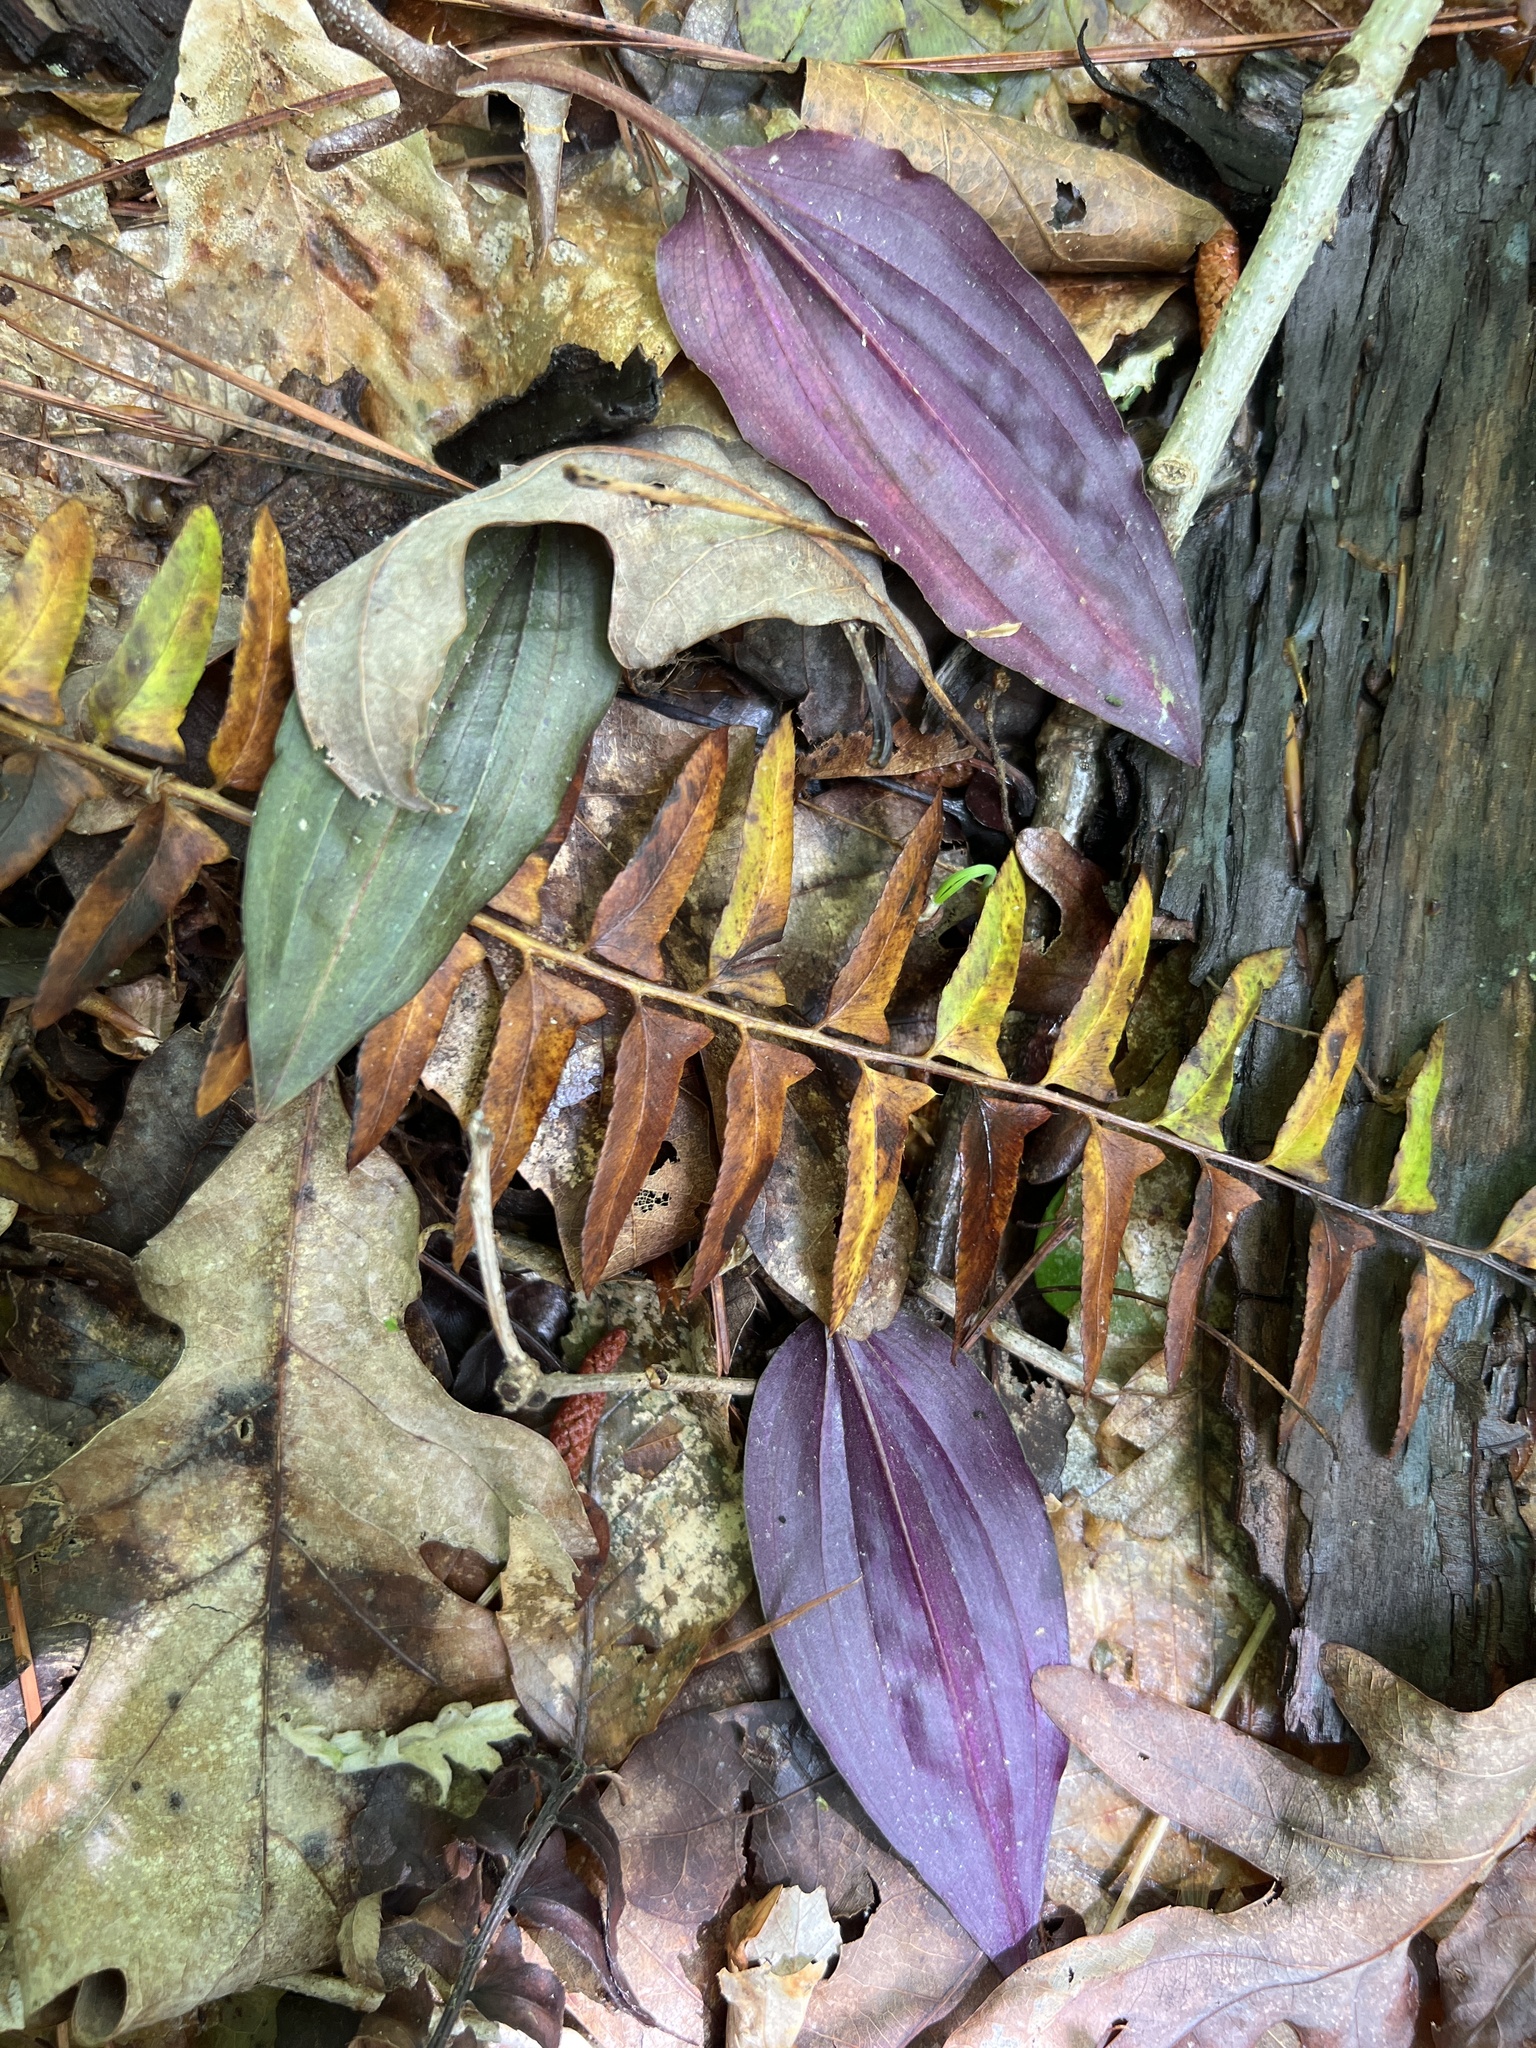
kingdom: Plantae
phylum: Tracheophyta
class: Liliopsida
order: Asparagales
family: Orchidaceae
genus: Tipularia
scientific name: Tipularia discolor
